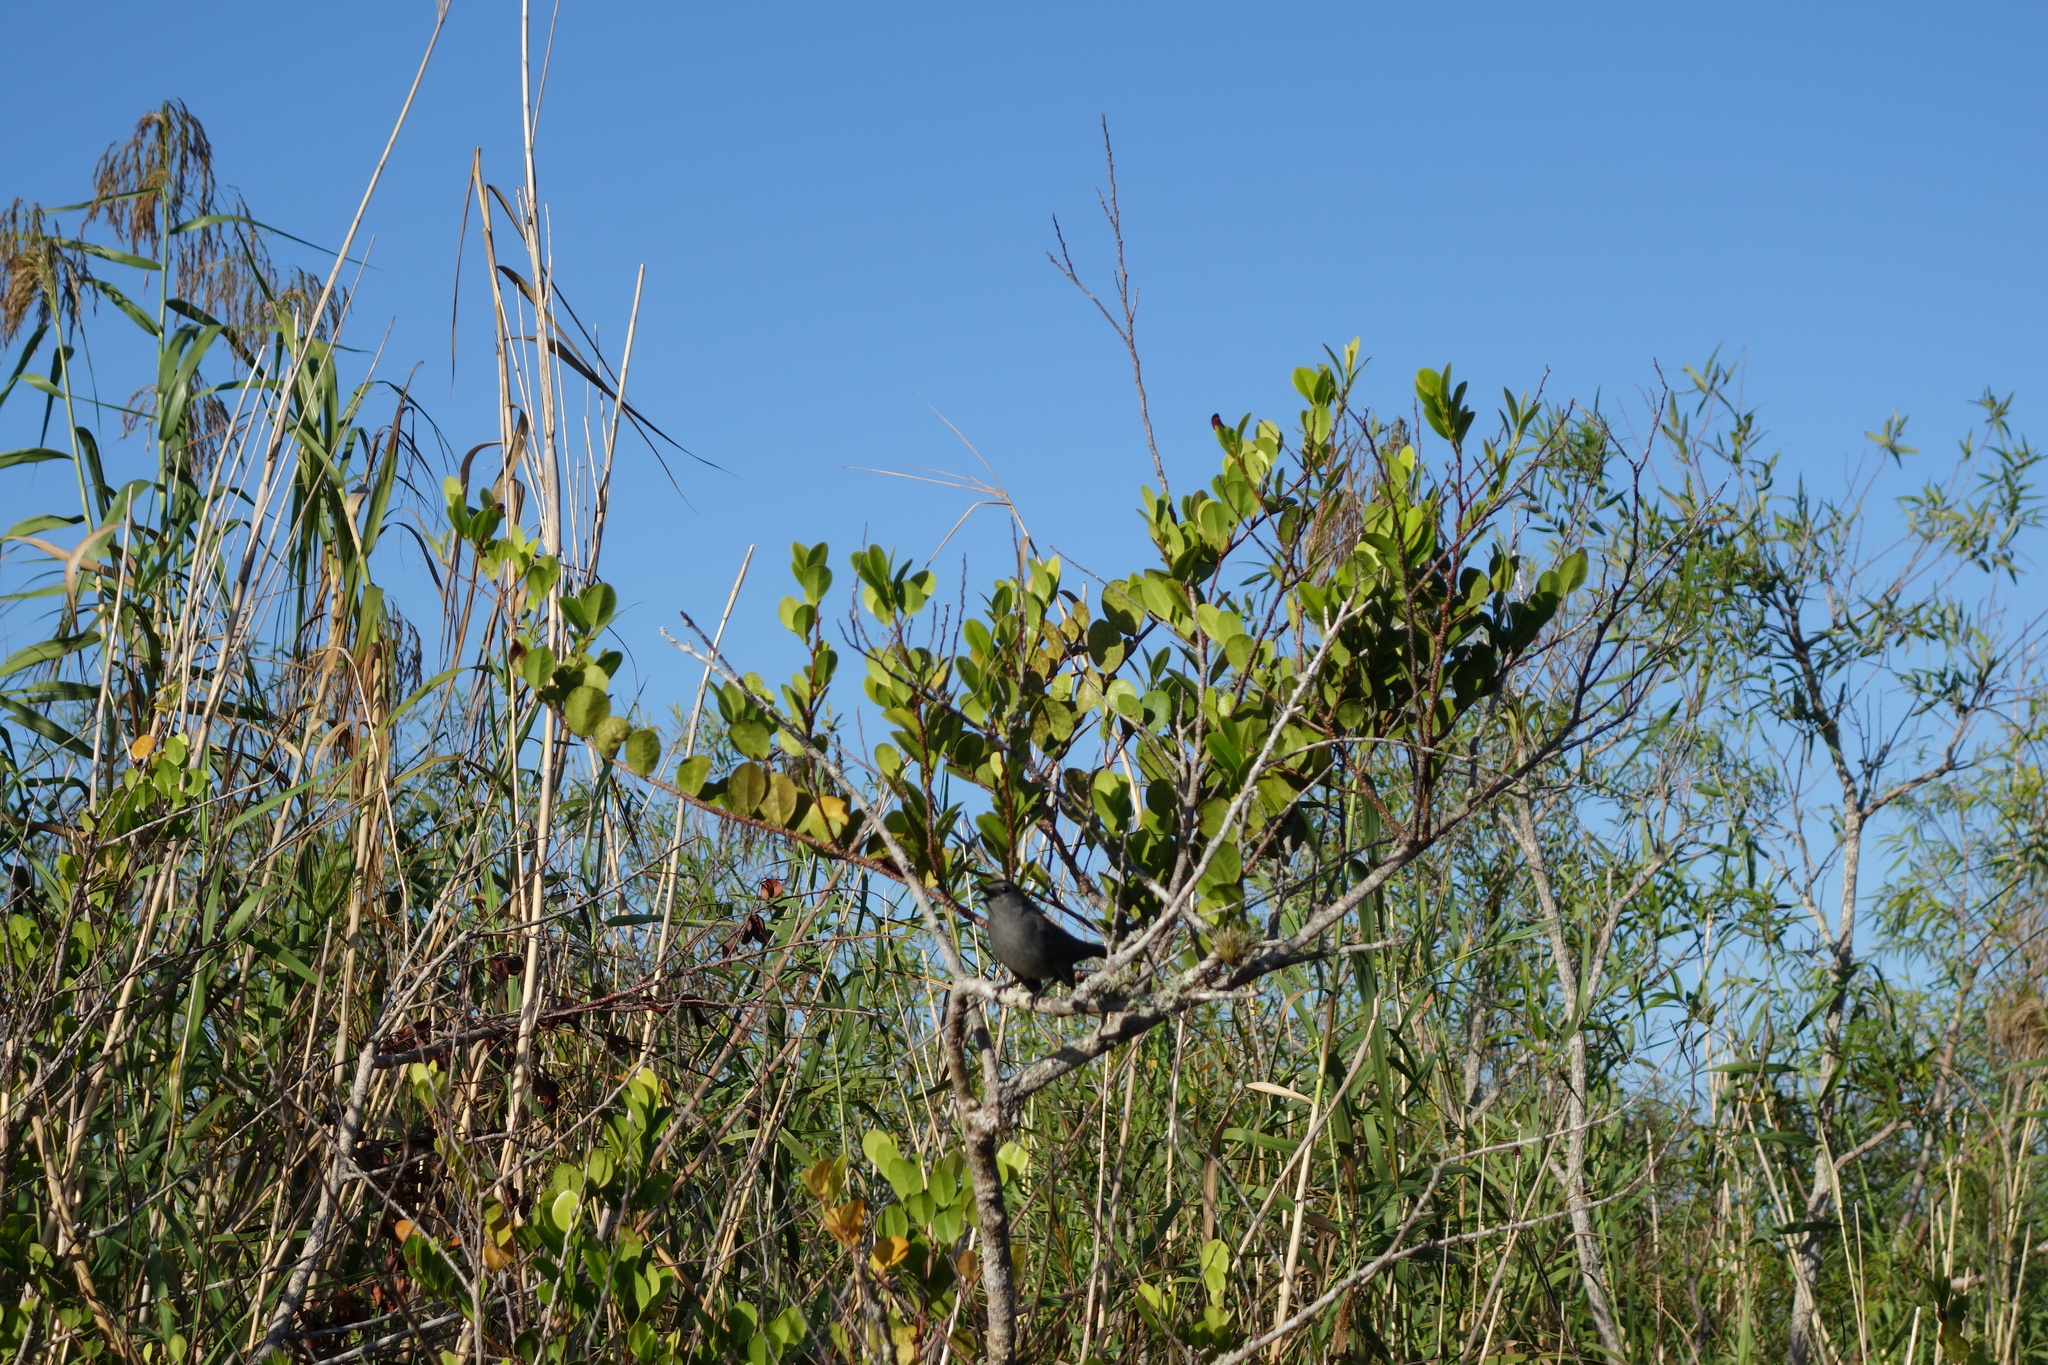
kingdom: Animalia
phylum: Chordata
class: Aves
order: Passeriformes
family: Mimidae
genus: Dumetella
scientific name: Dumetella carolinensis
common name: Gray catbird
